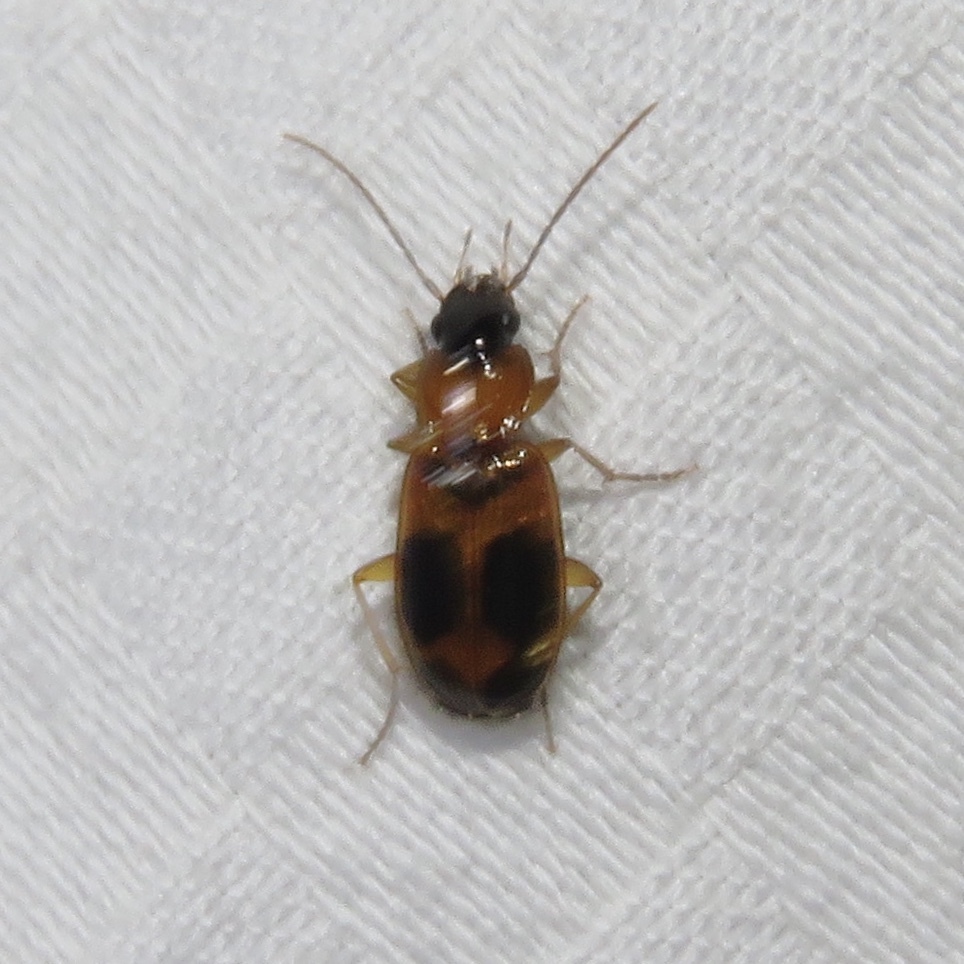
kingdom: Animalia
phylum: Arthropoda
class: Insecta
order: Coleoptera
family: Carabidae
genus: Badister
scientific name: Badister neopulchellus
